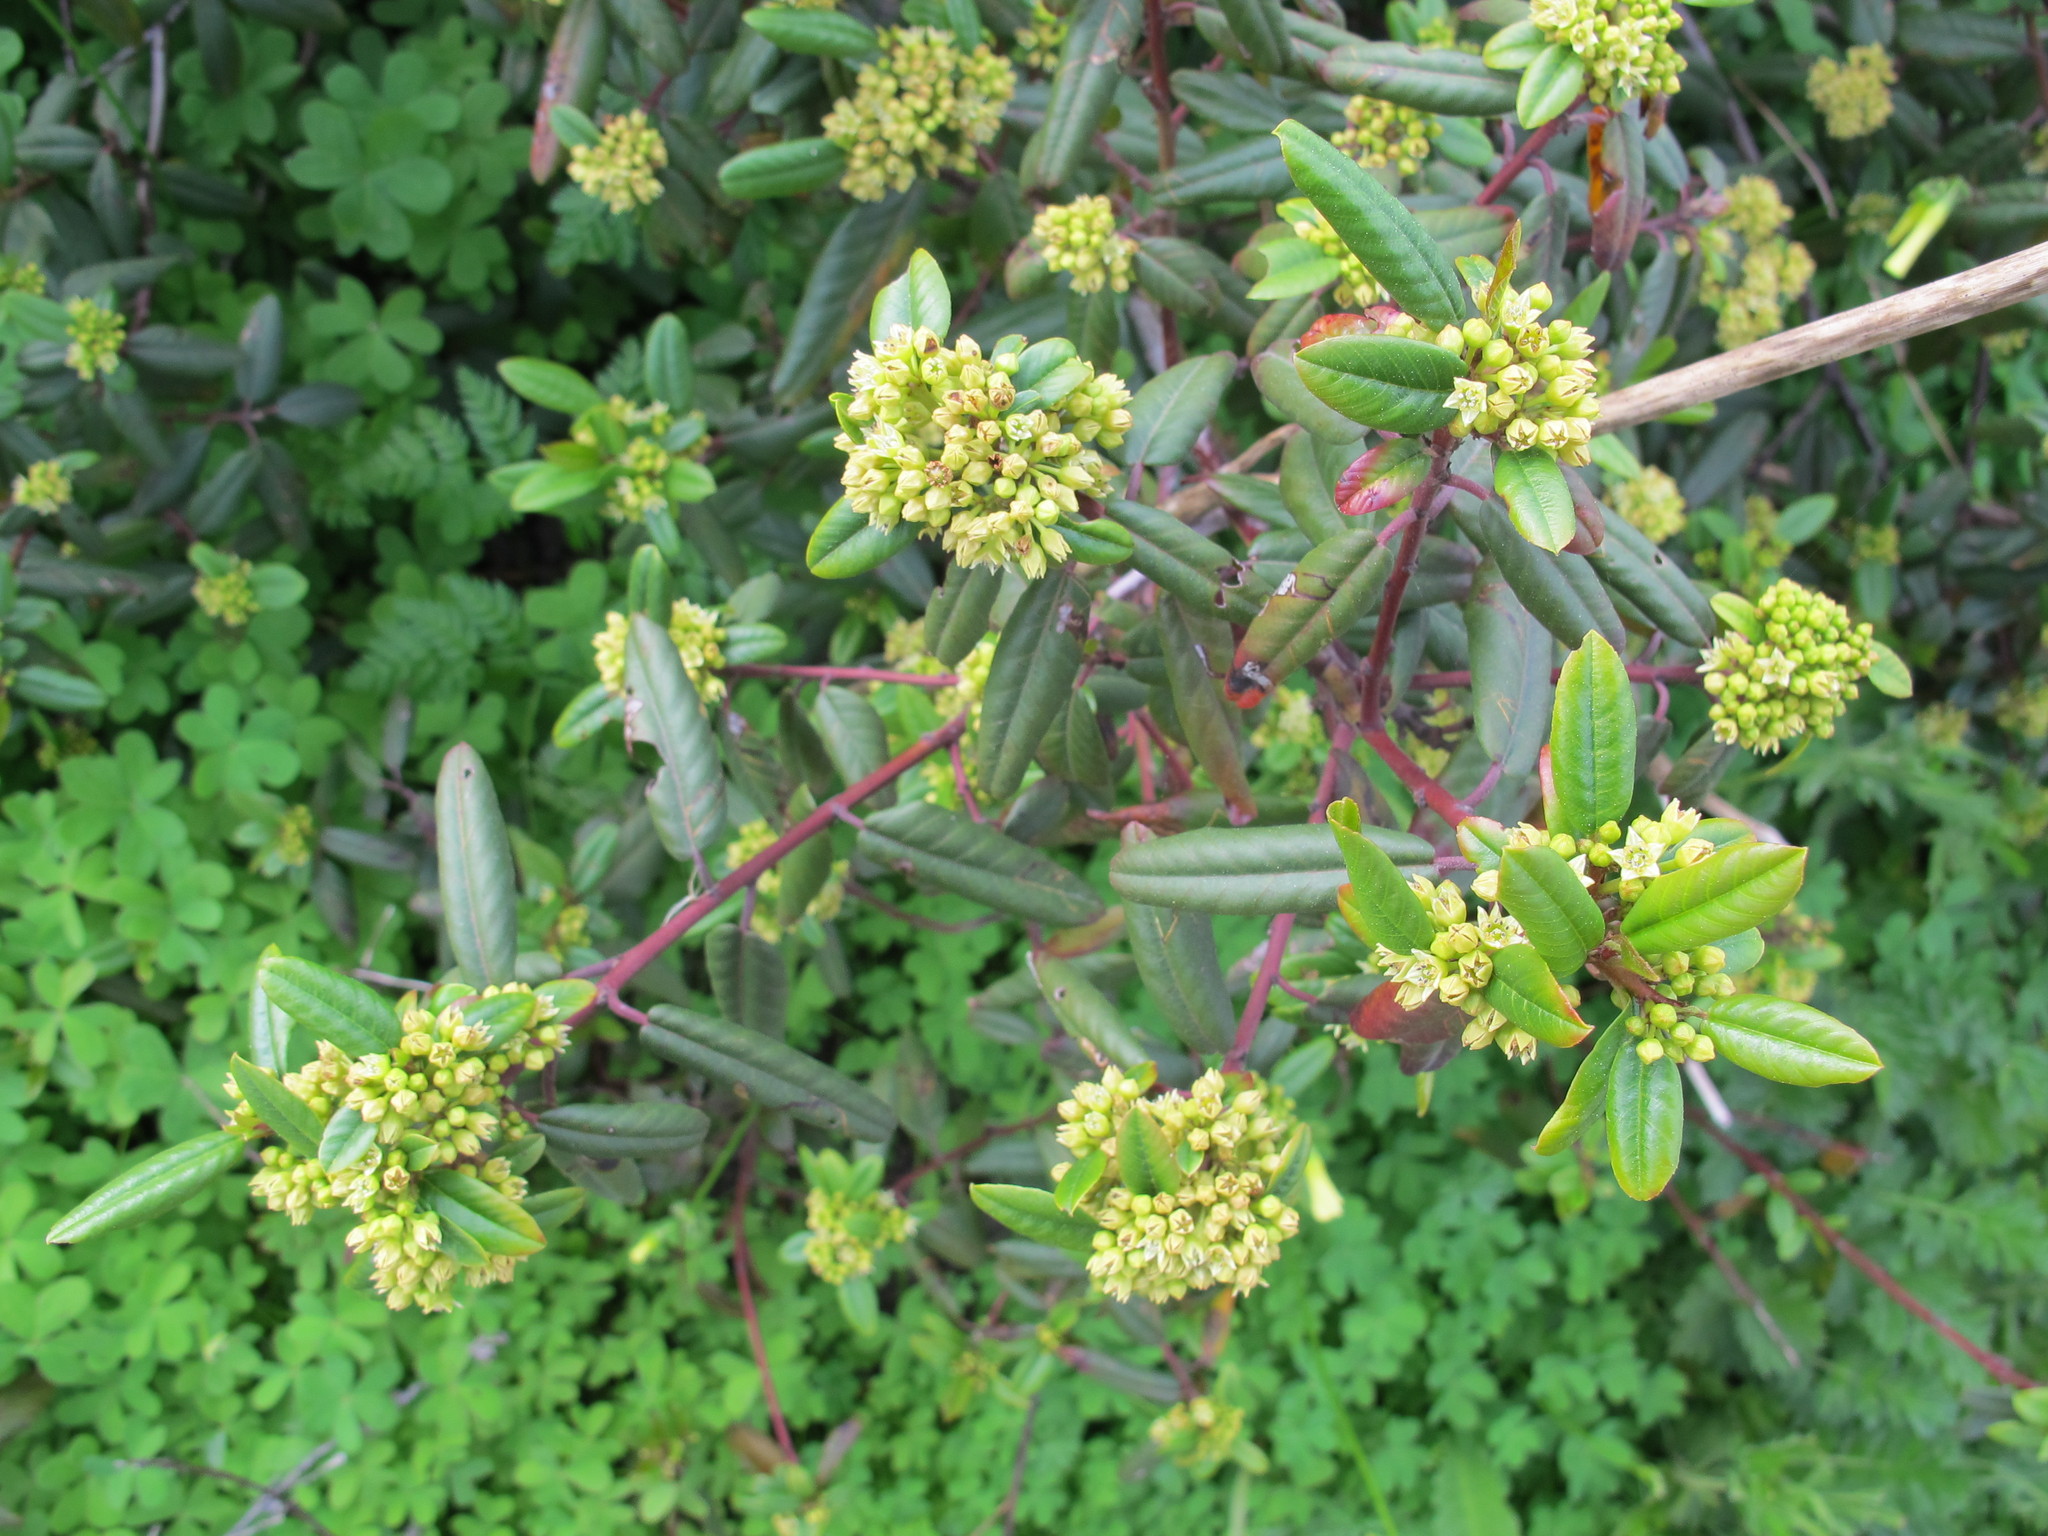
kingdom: Plantae
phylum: Tracheophyta
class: Magnoliopsida
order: Rosales
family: Rhamnaceae
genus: Frangula
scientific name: Frangula californica
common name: California buckthorn
